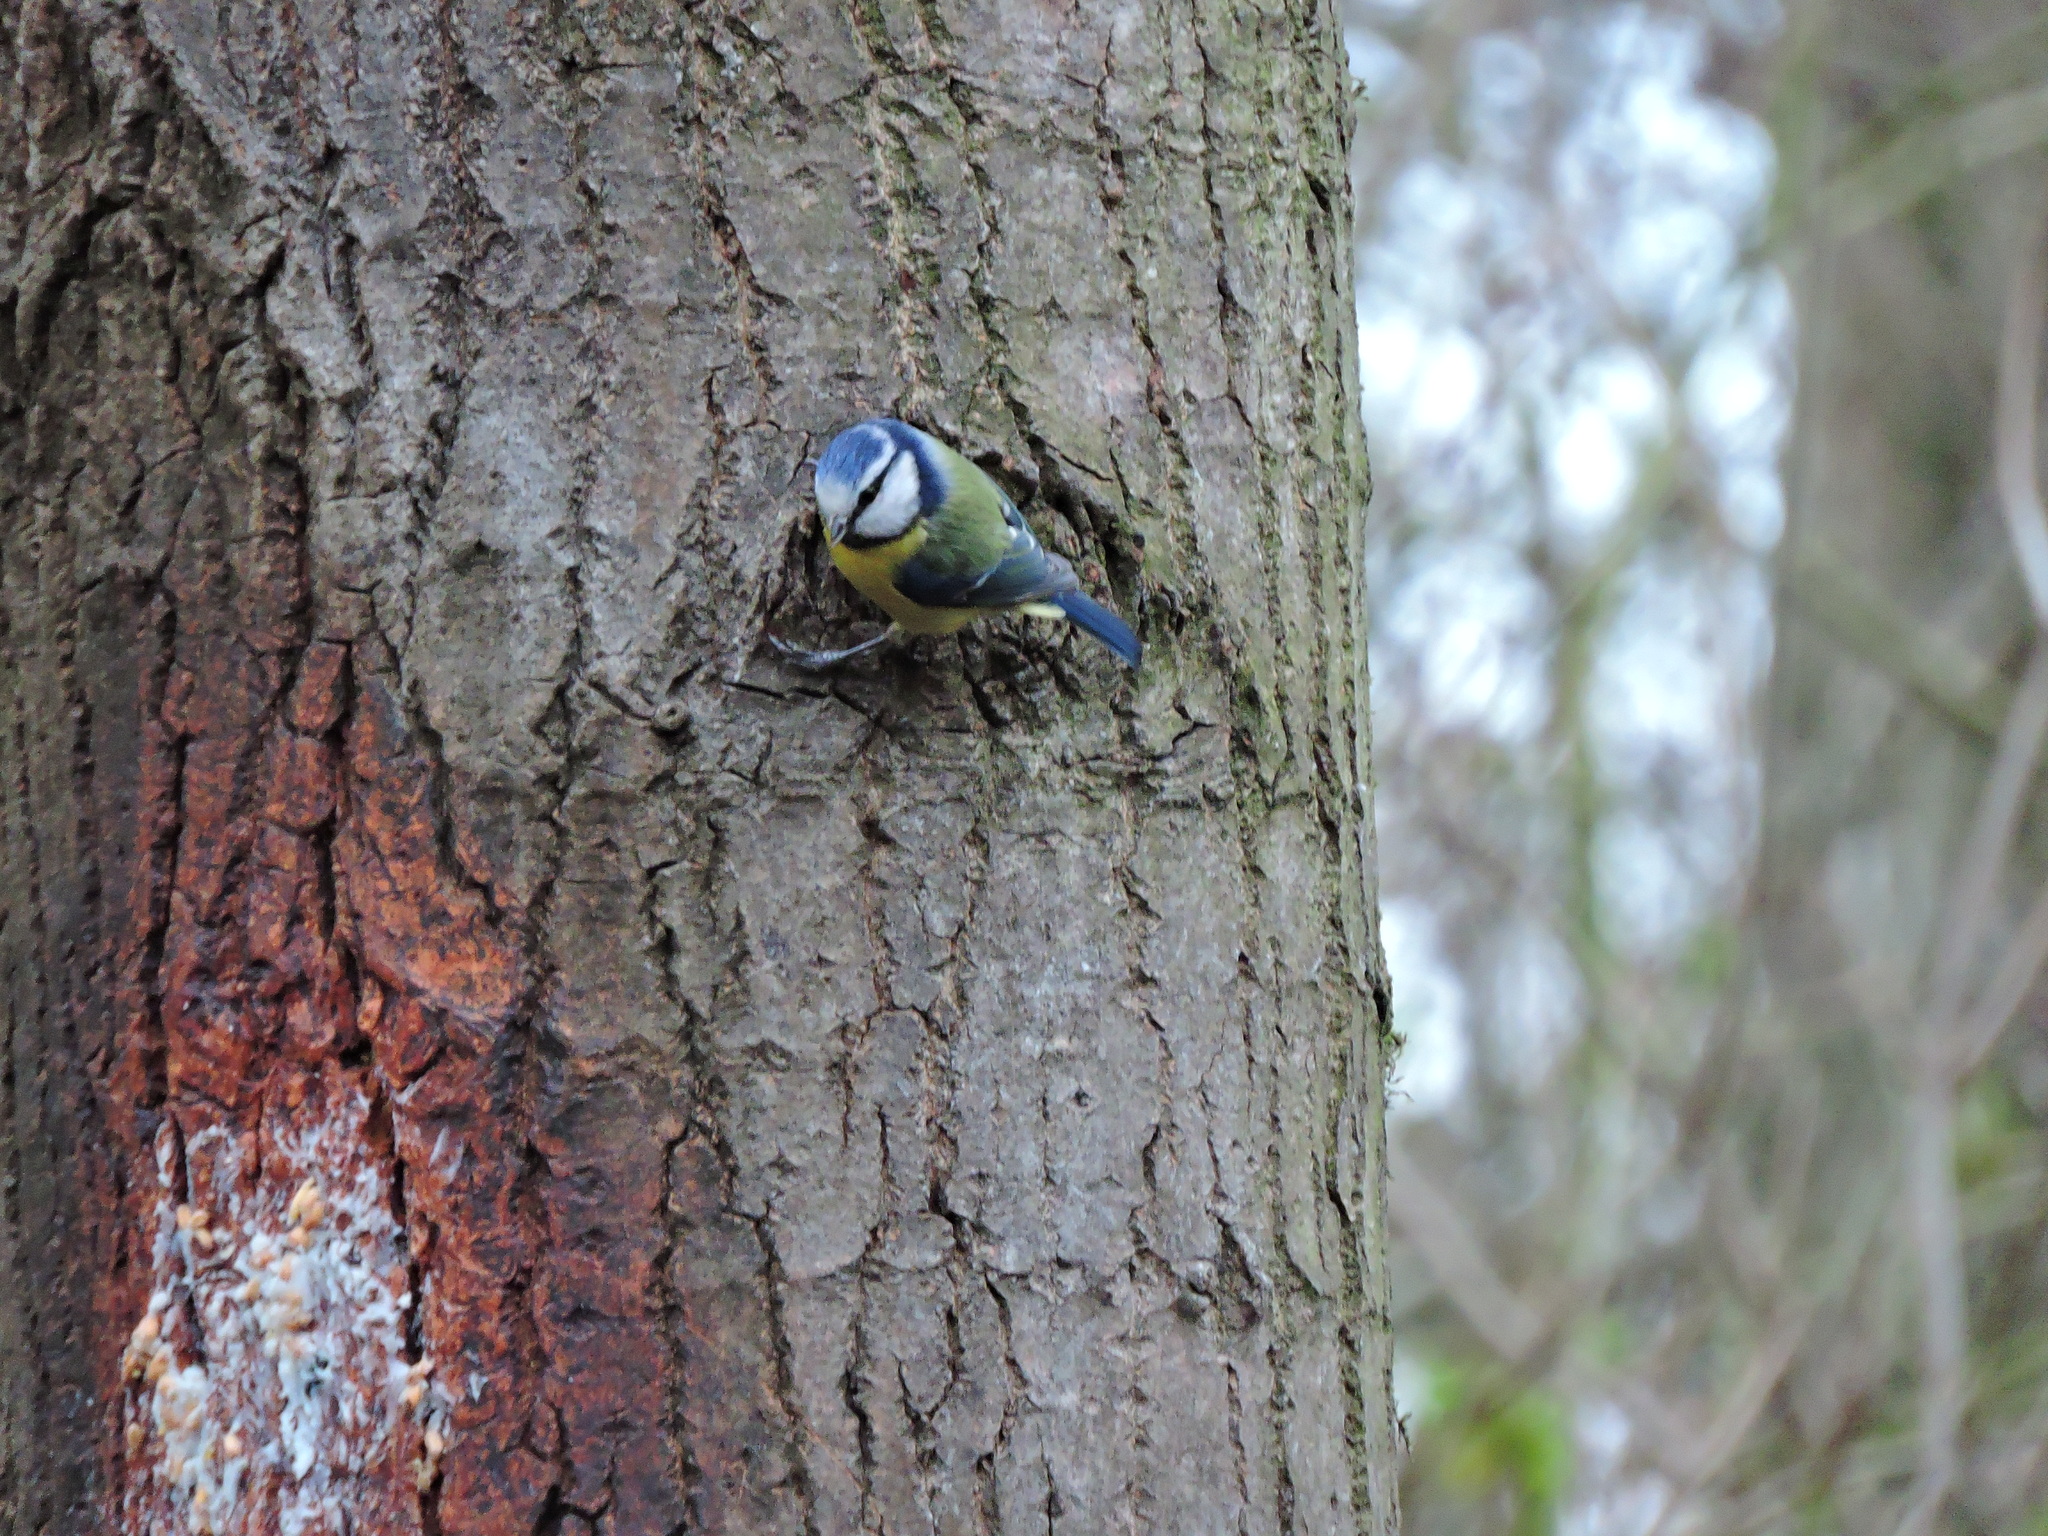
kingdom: Animalia
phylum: Chordata
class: Aves
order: Passeriformes
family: Paridae
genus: Cyanistes
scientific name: Cyanistes caeruleus
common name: Eurasian blue tit
